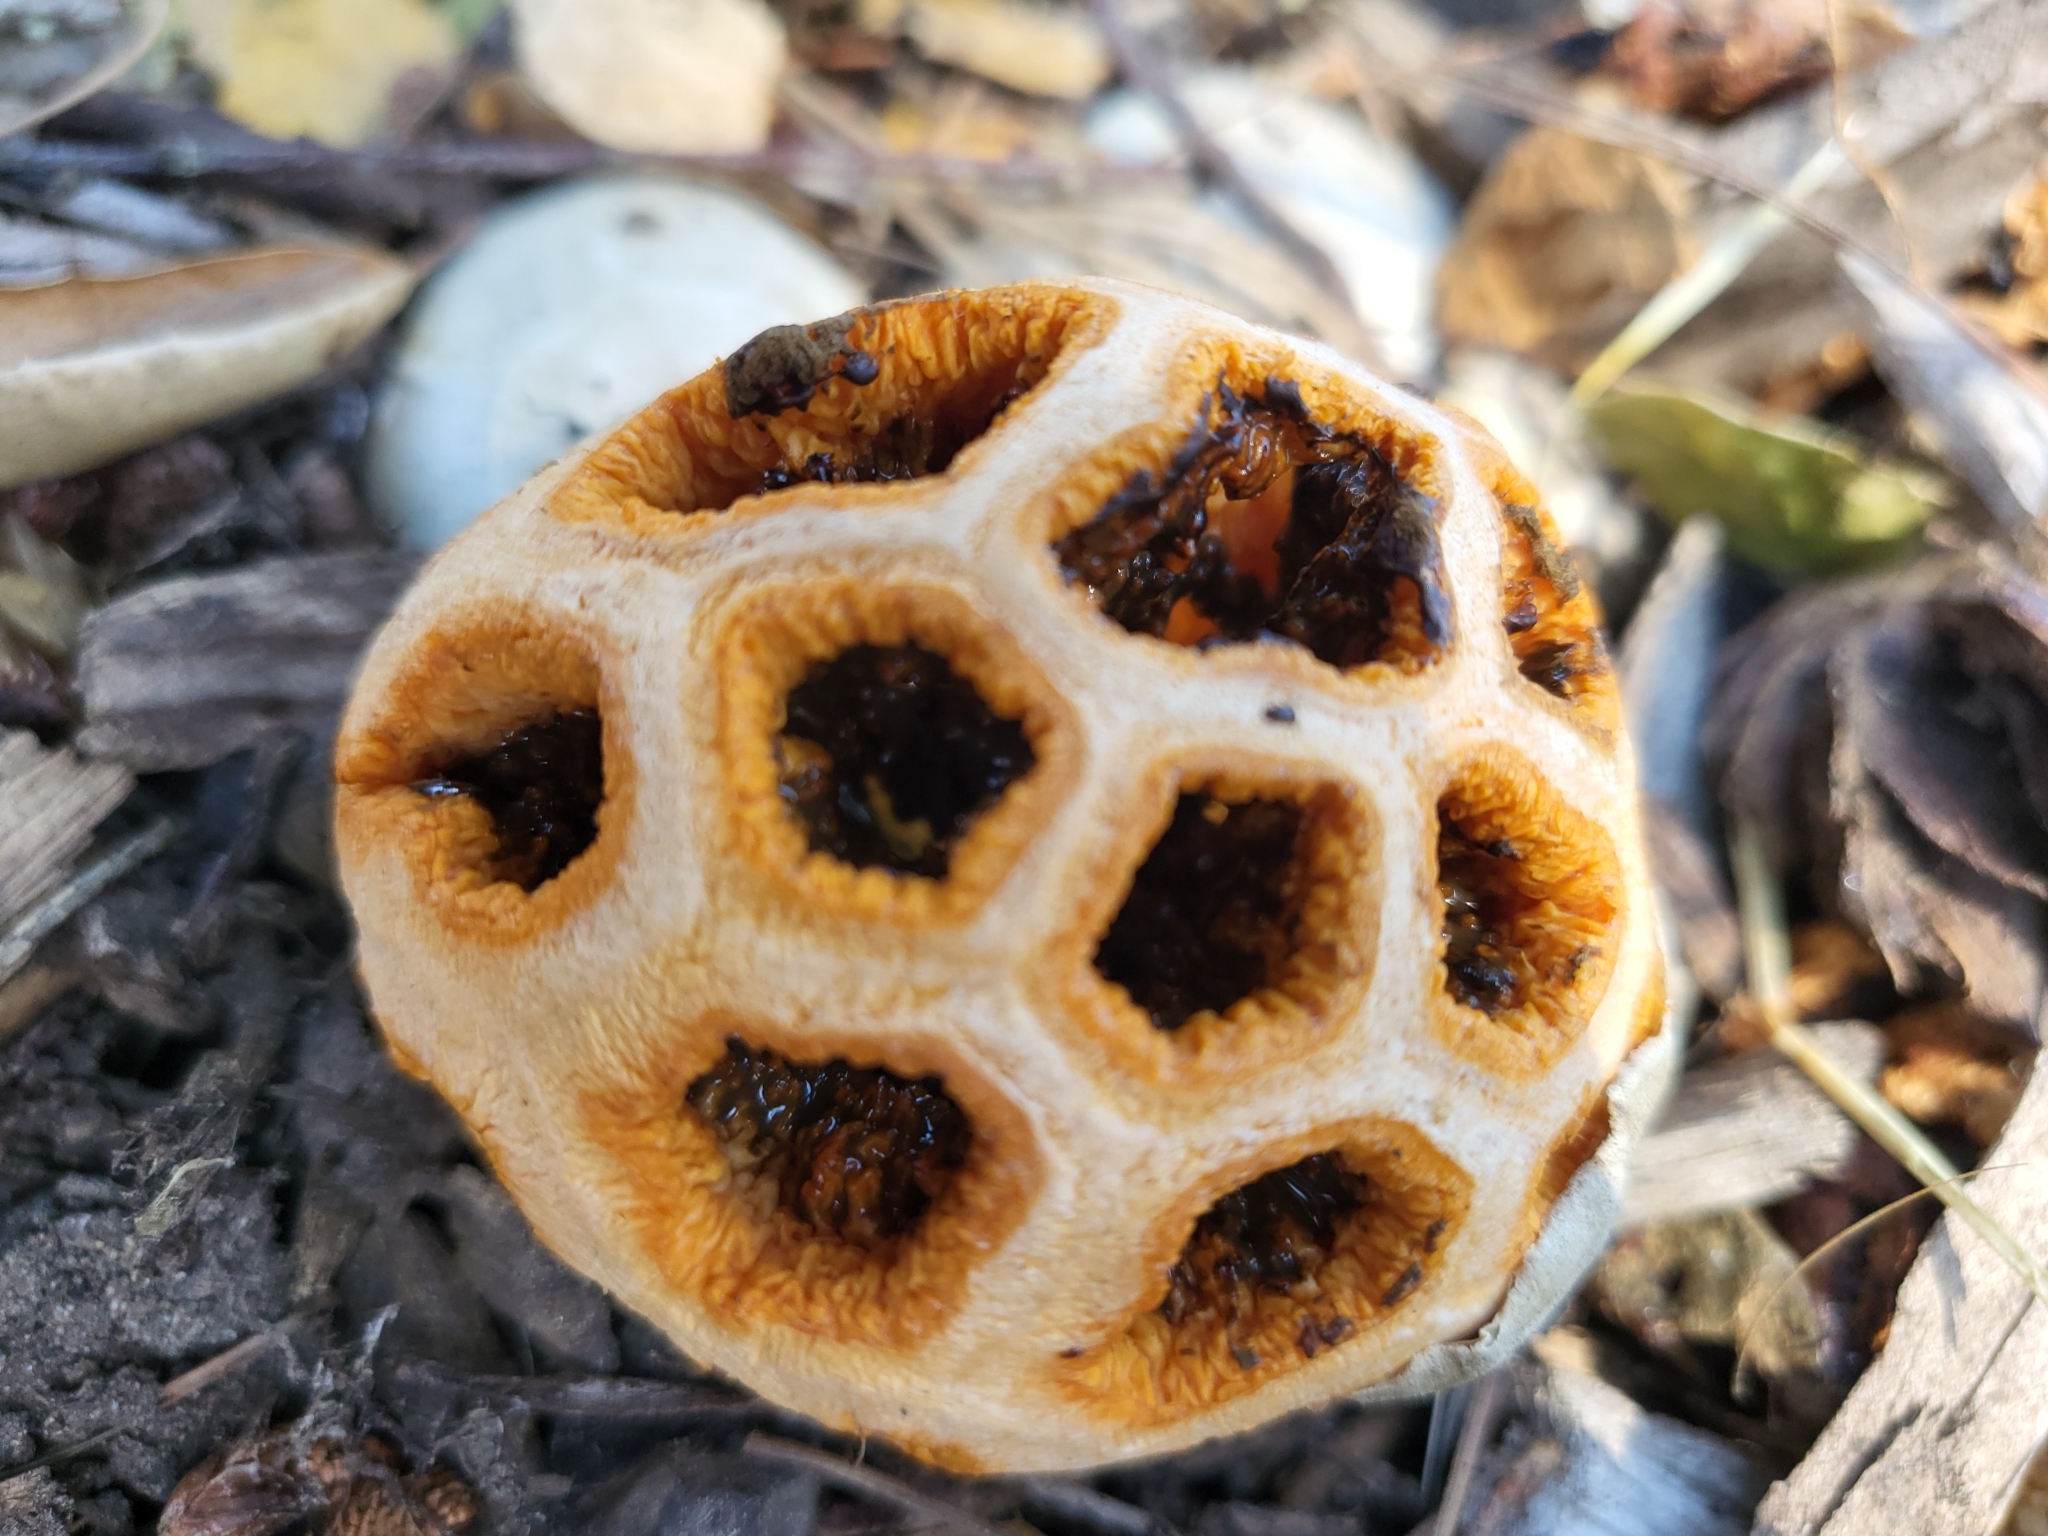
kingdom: Fungi
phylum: Basidiomycota
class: Agaricomycetes
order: Phallales
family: Phallaceae
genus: Clathrus
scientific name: Clathrus ruber
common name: Red cage
